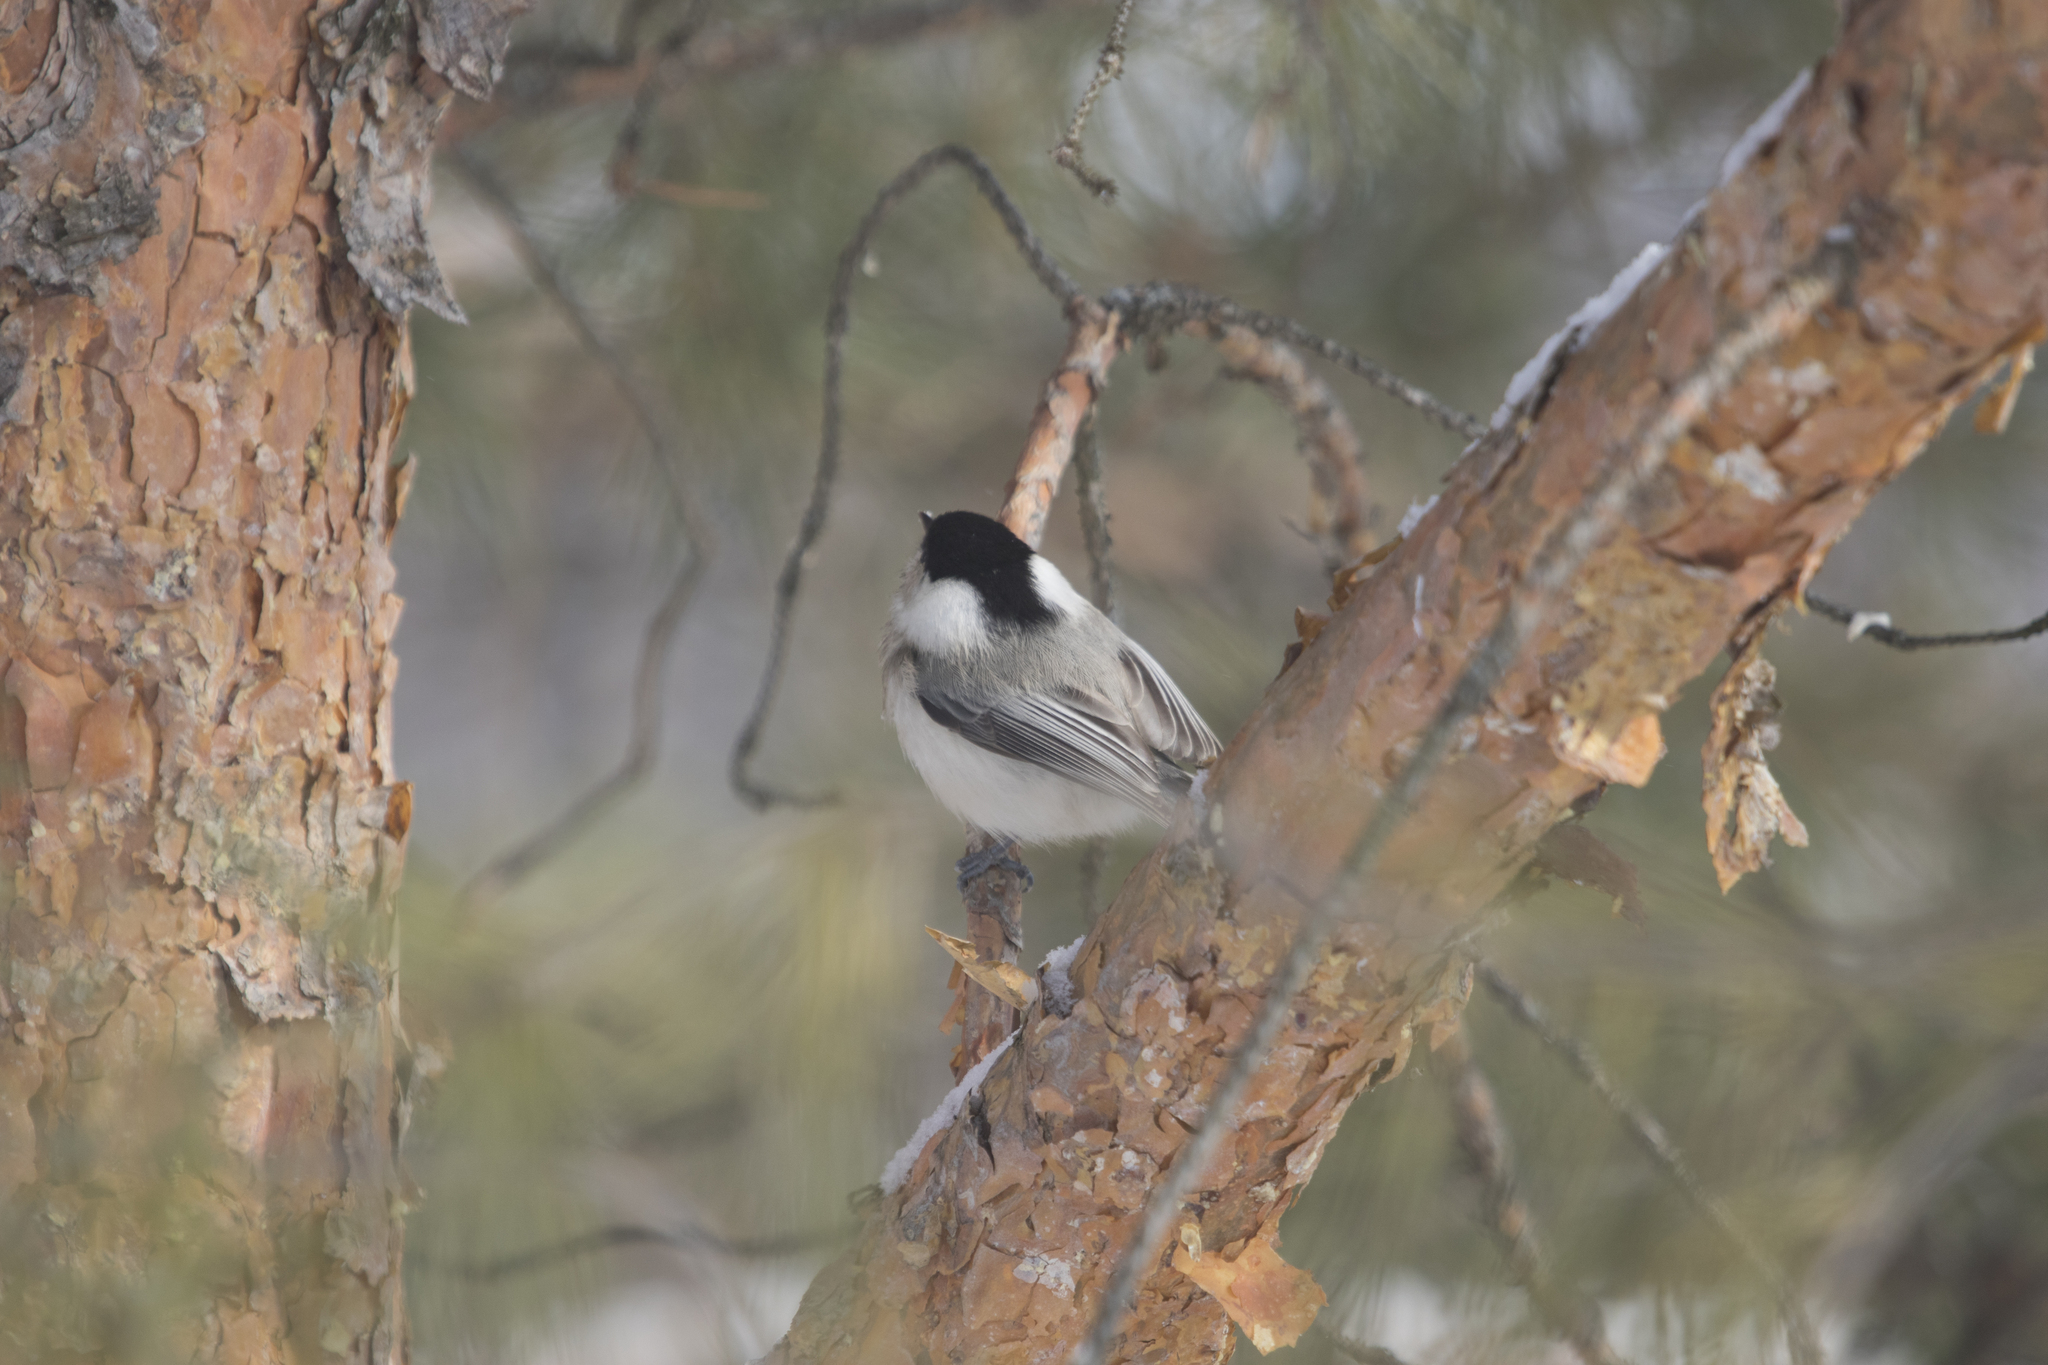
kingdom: Animalia
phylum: Chordata
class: Aves
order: Passeriformes
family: Paridae
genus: Poecile
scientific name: Poecile montanus
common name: Willow tit
